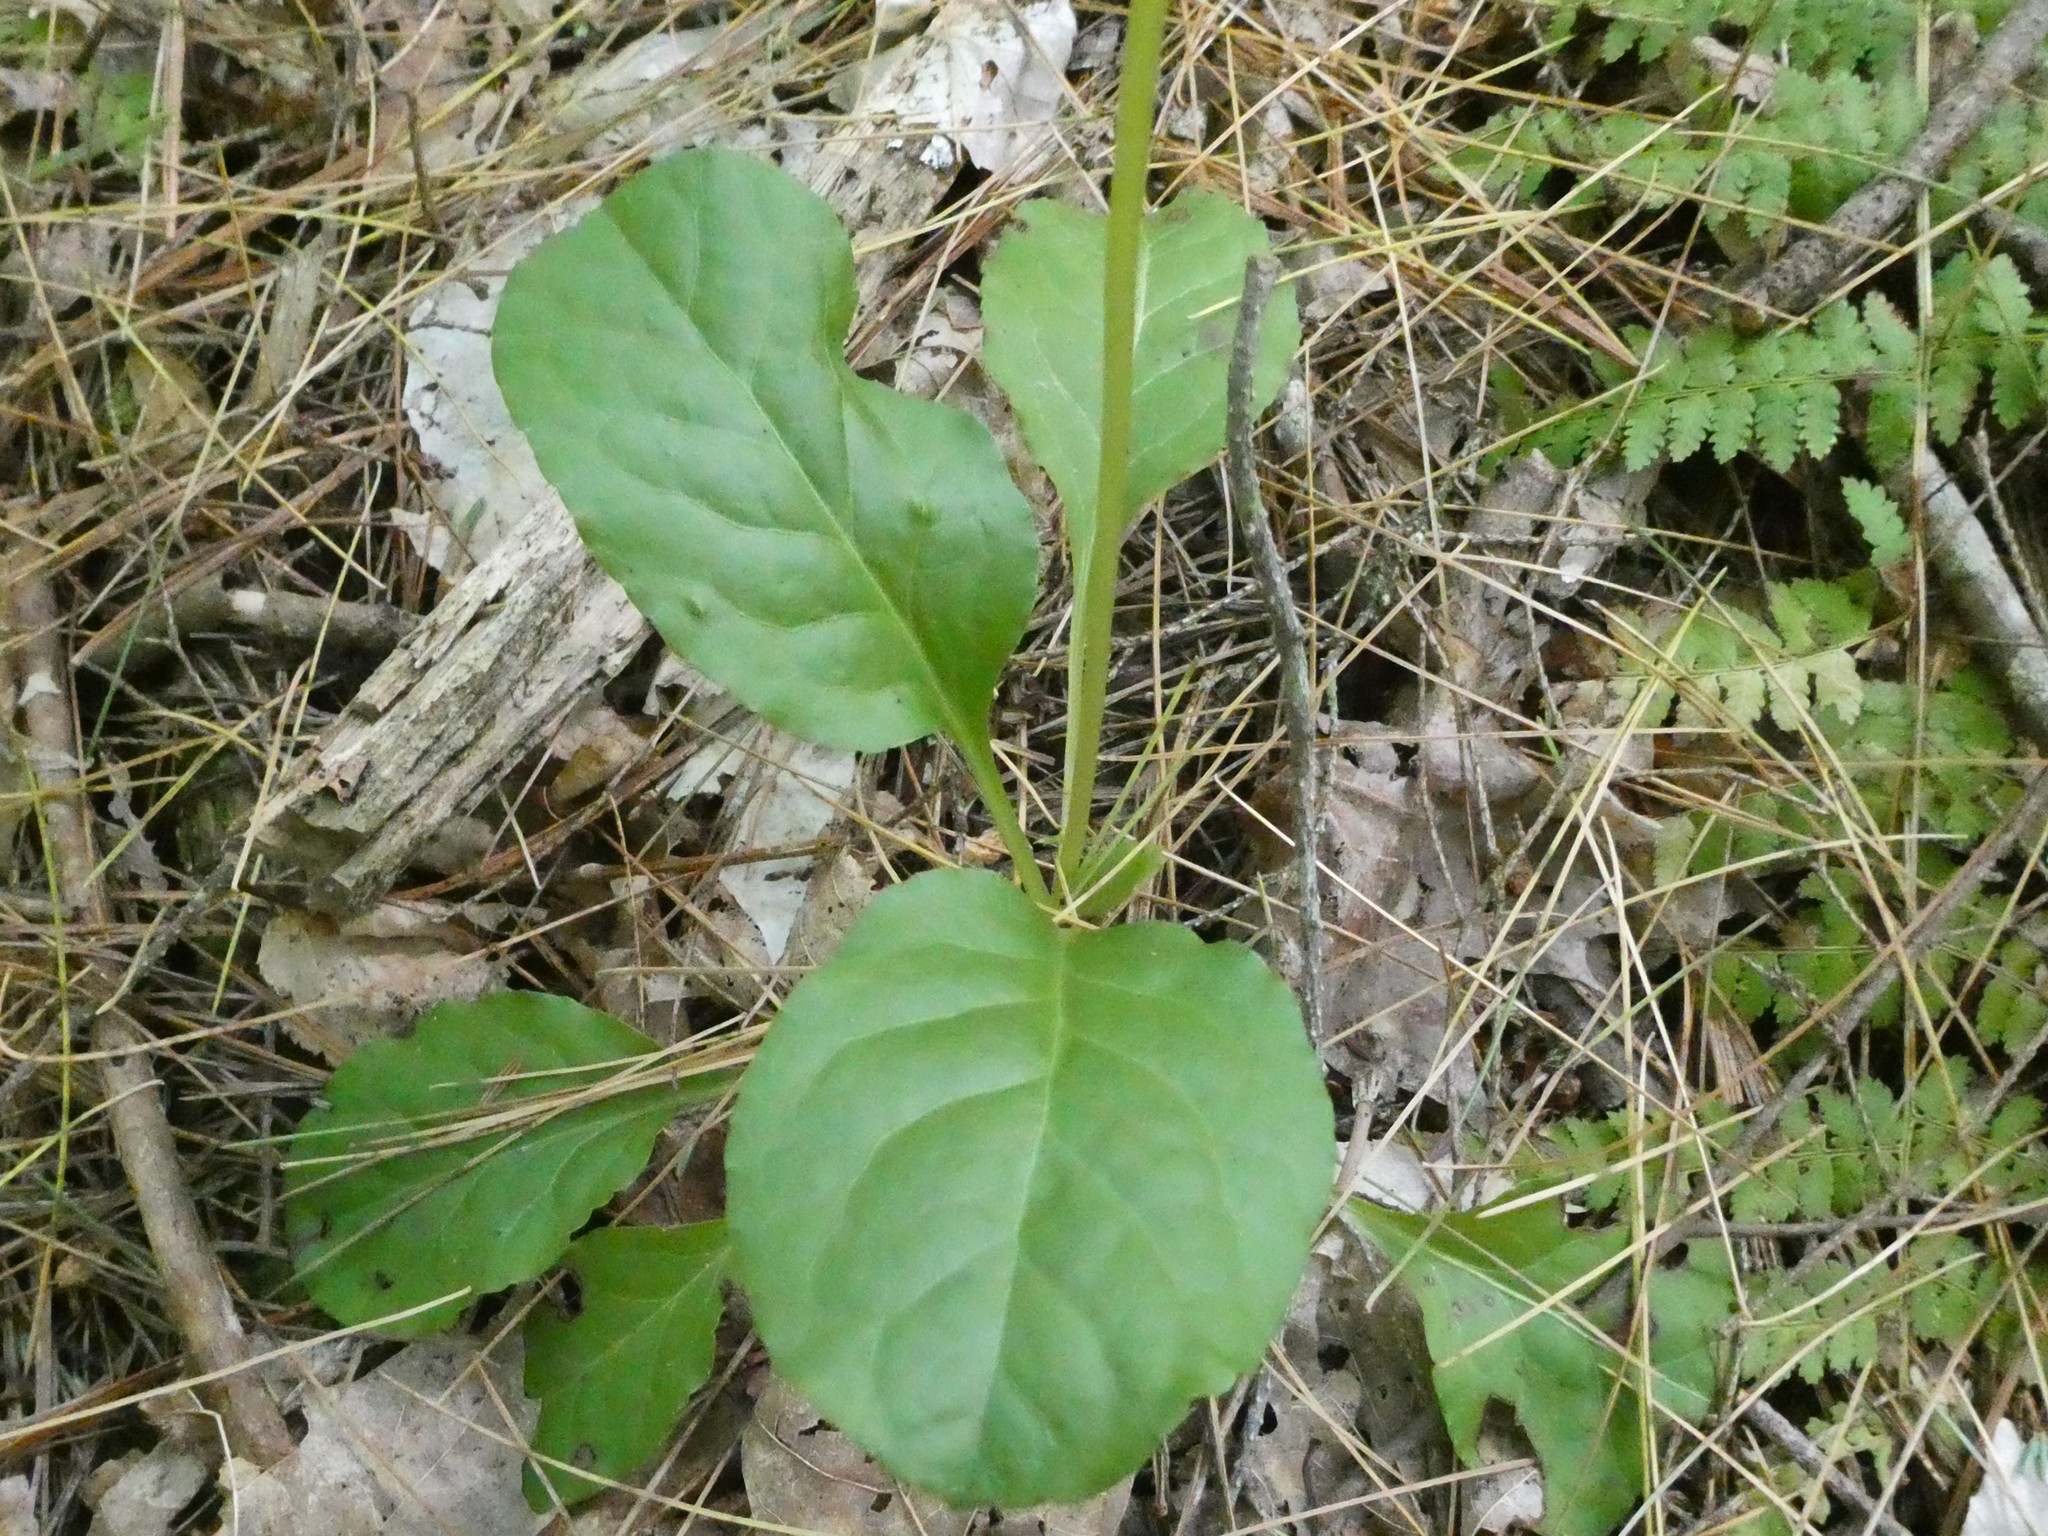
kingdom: Plantae
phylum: Tracheophyta
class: Magnoliopsida
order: Ericales
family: Ericaceae
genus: Pyrola
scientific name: Pyrola elliptica
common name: Shinleaf
